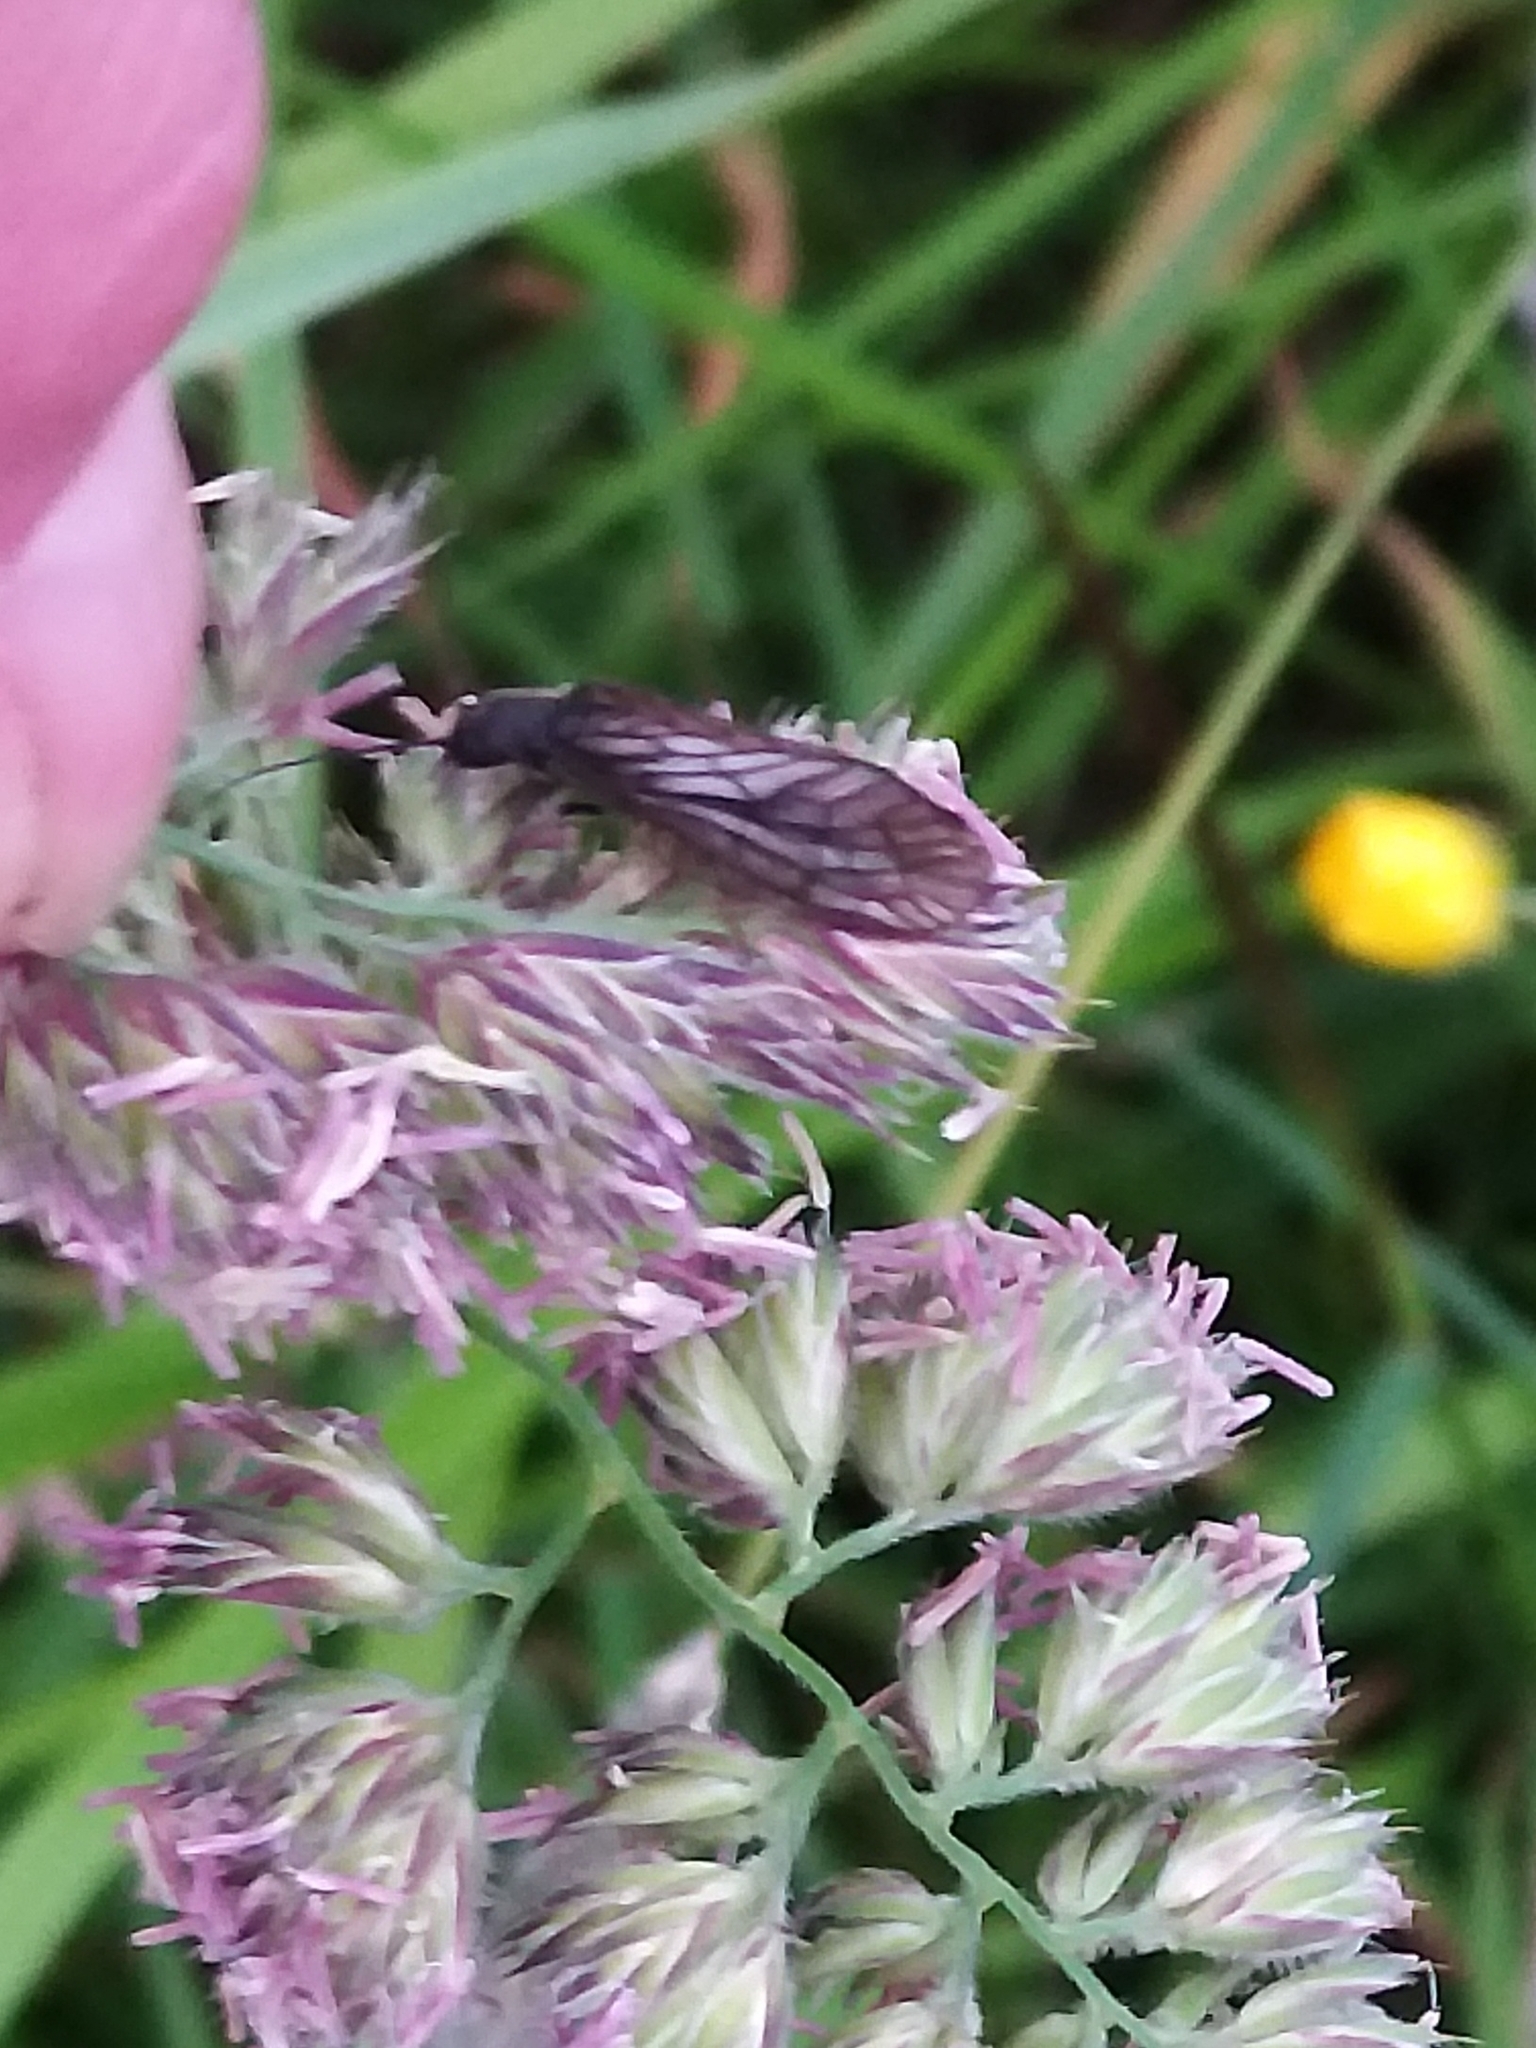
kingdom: Animalia
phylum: Arthropoda
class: Insecta
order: Megaloptera
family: Sialidae
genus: Sialis
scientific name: Sialis
